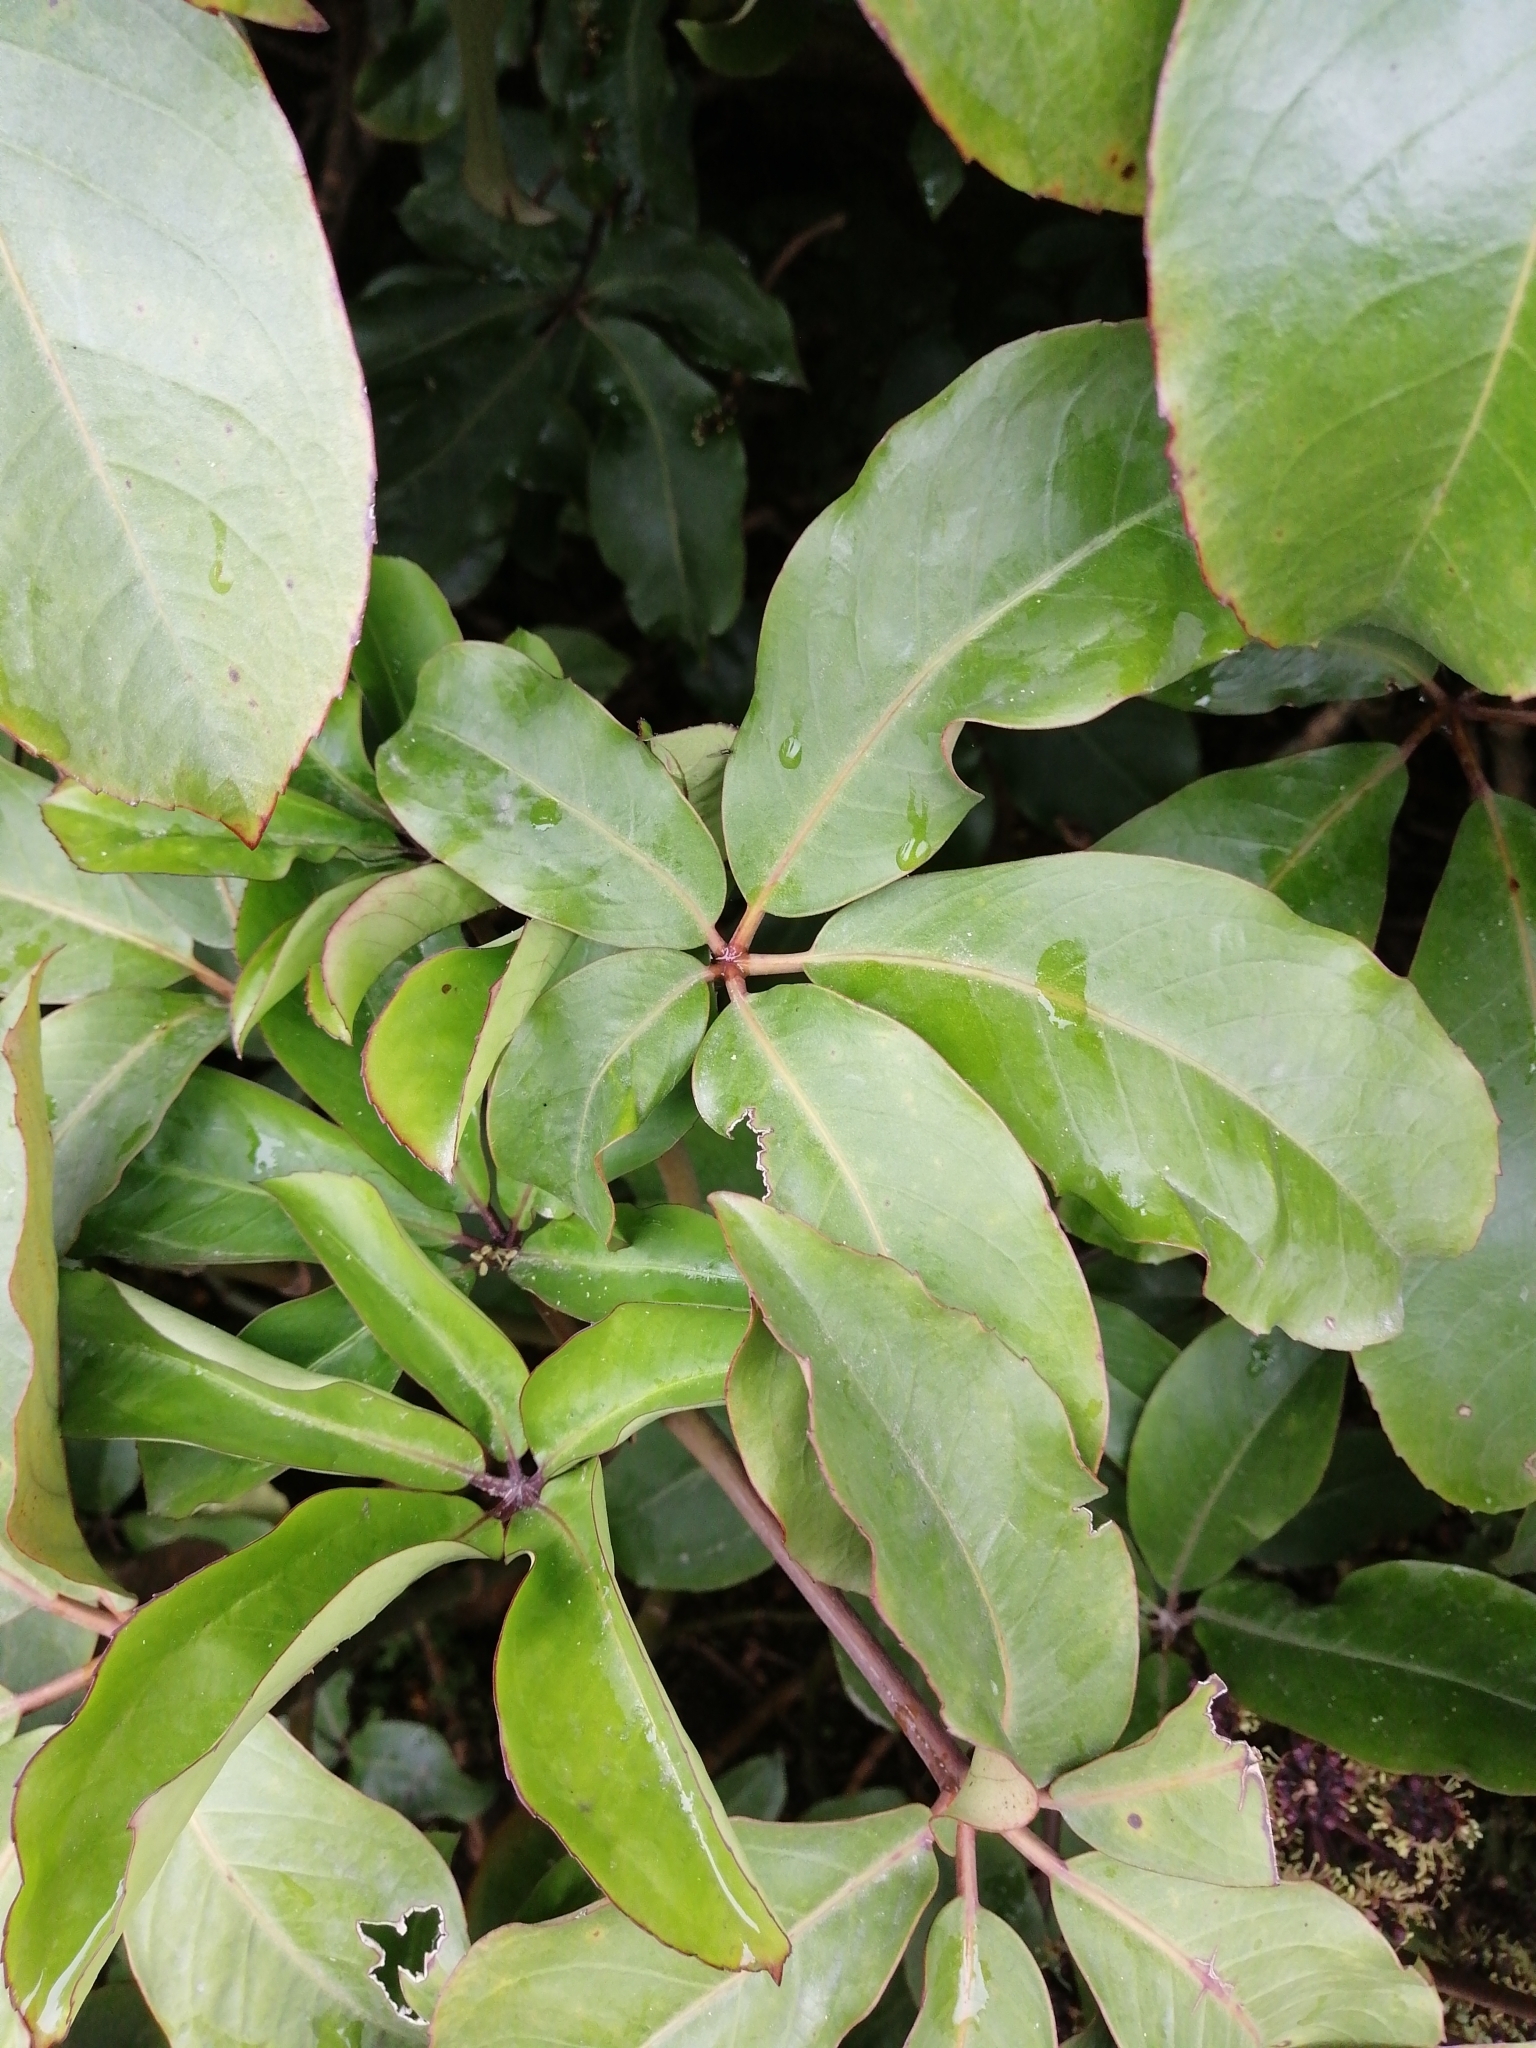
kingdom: Plantae
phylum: Tracheophyta
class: Magnoliopsida
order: Apiales
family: Araliaceae
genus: Neopanax
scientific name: Neopanax laetus
